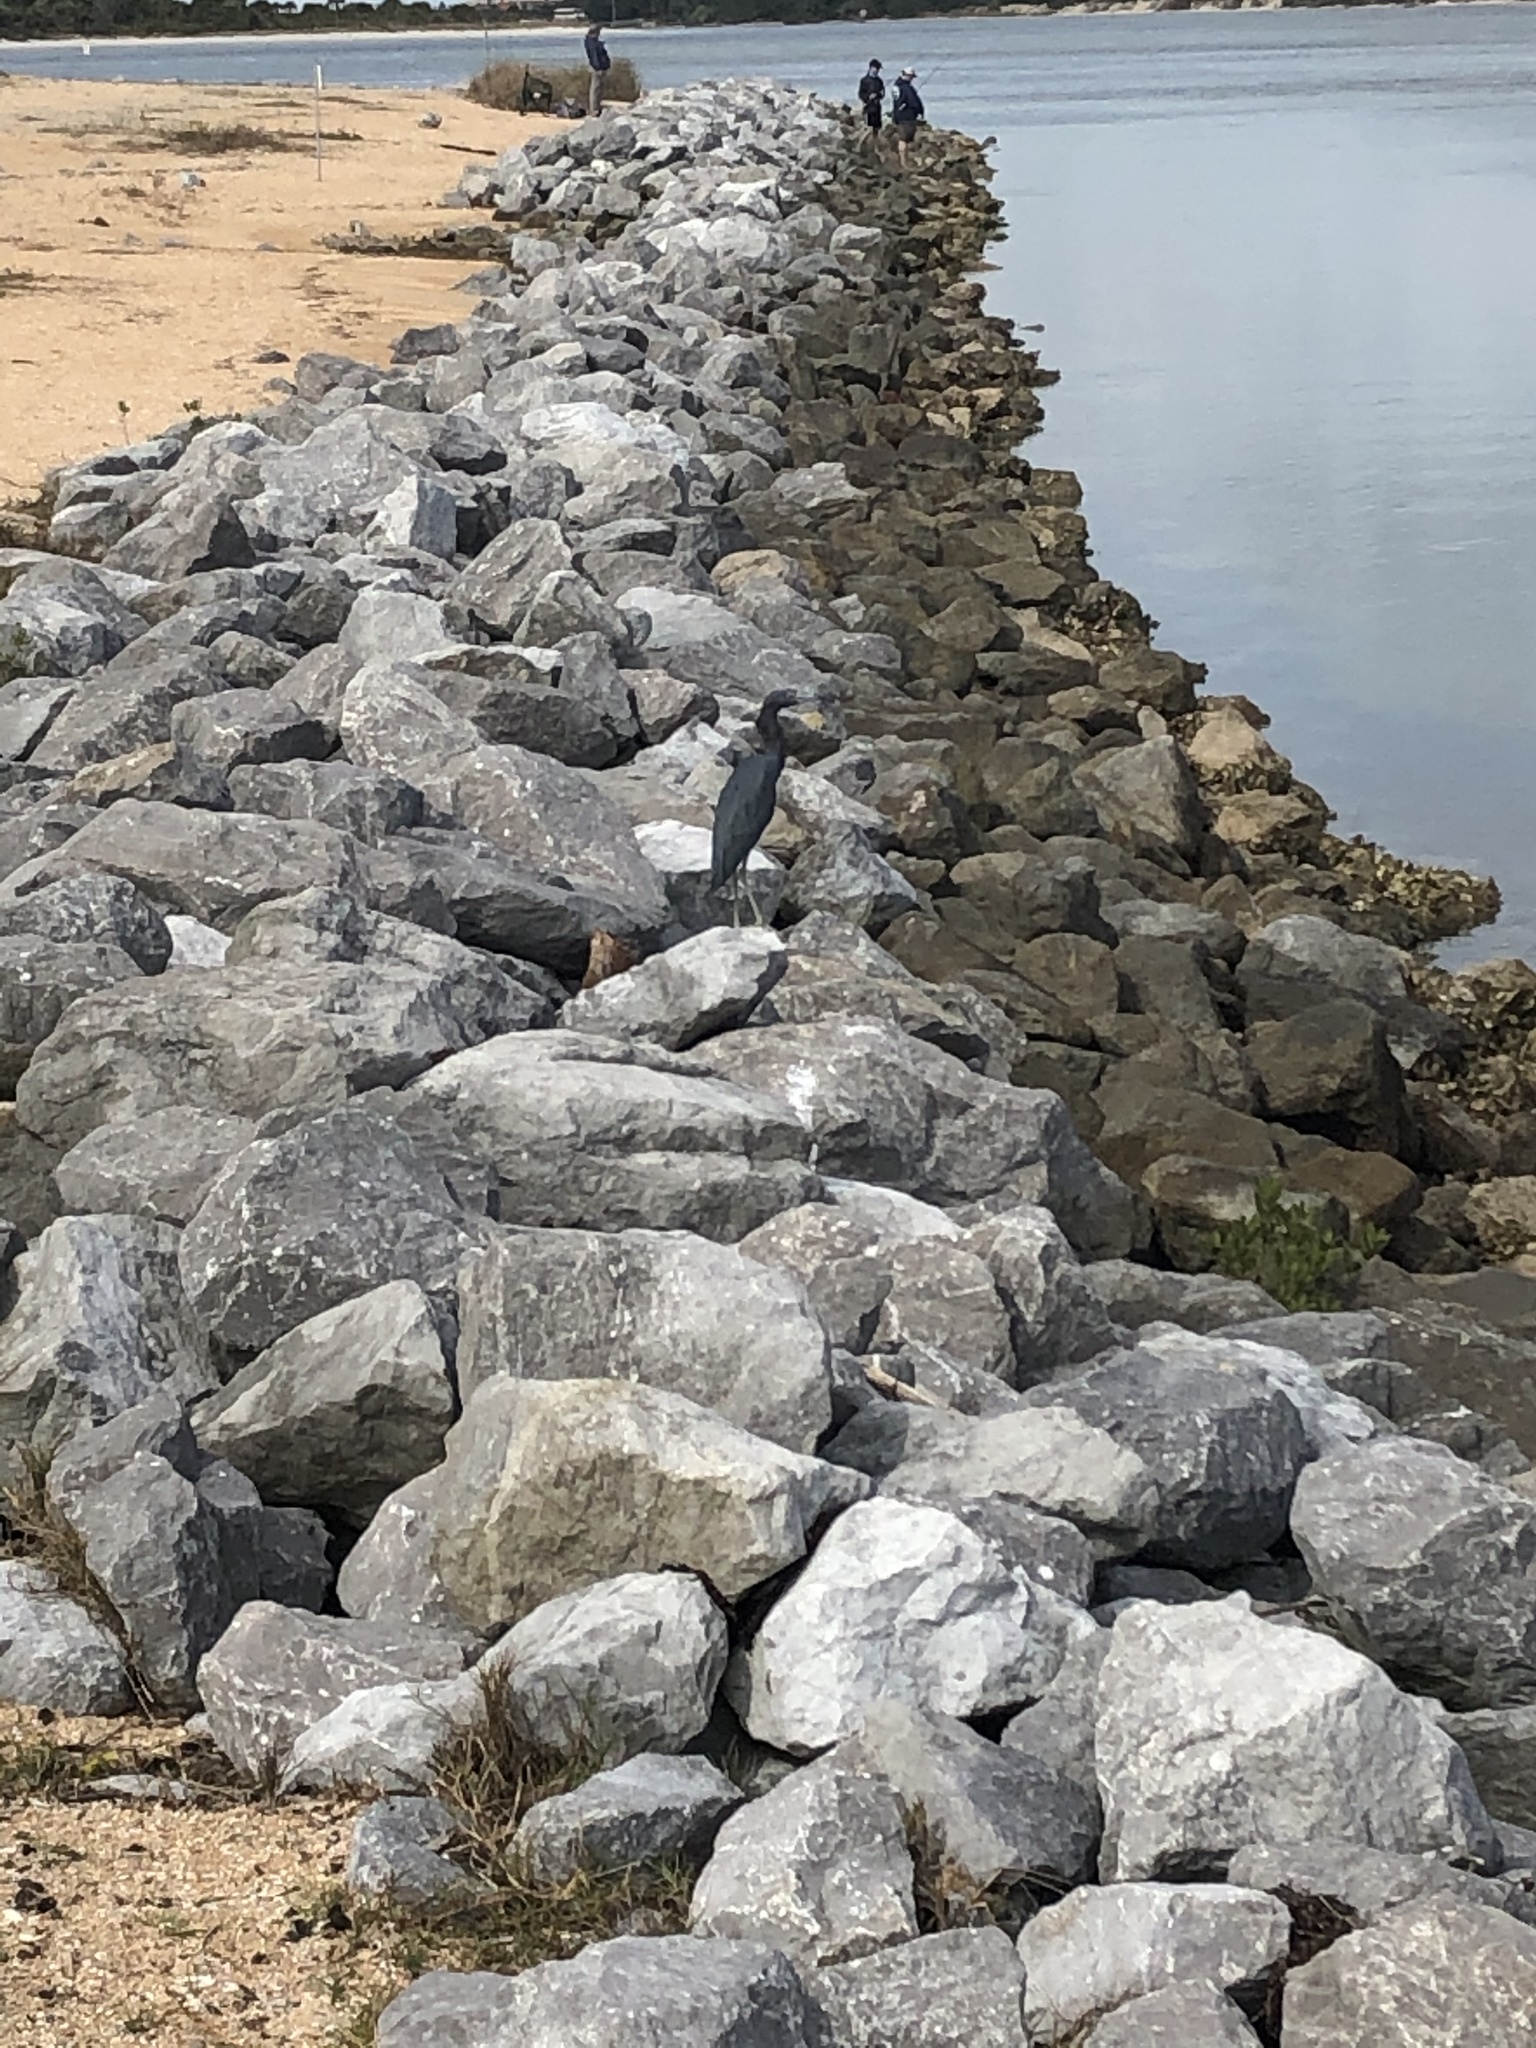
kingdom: Animalia
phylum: Chordata
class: Aves
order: Pelecaniformes
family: Ardeidae
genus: Egretta
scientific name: Egretta caerulea
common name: Little blue heron
